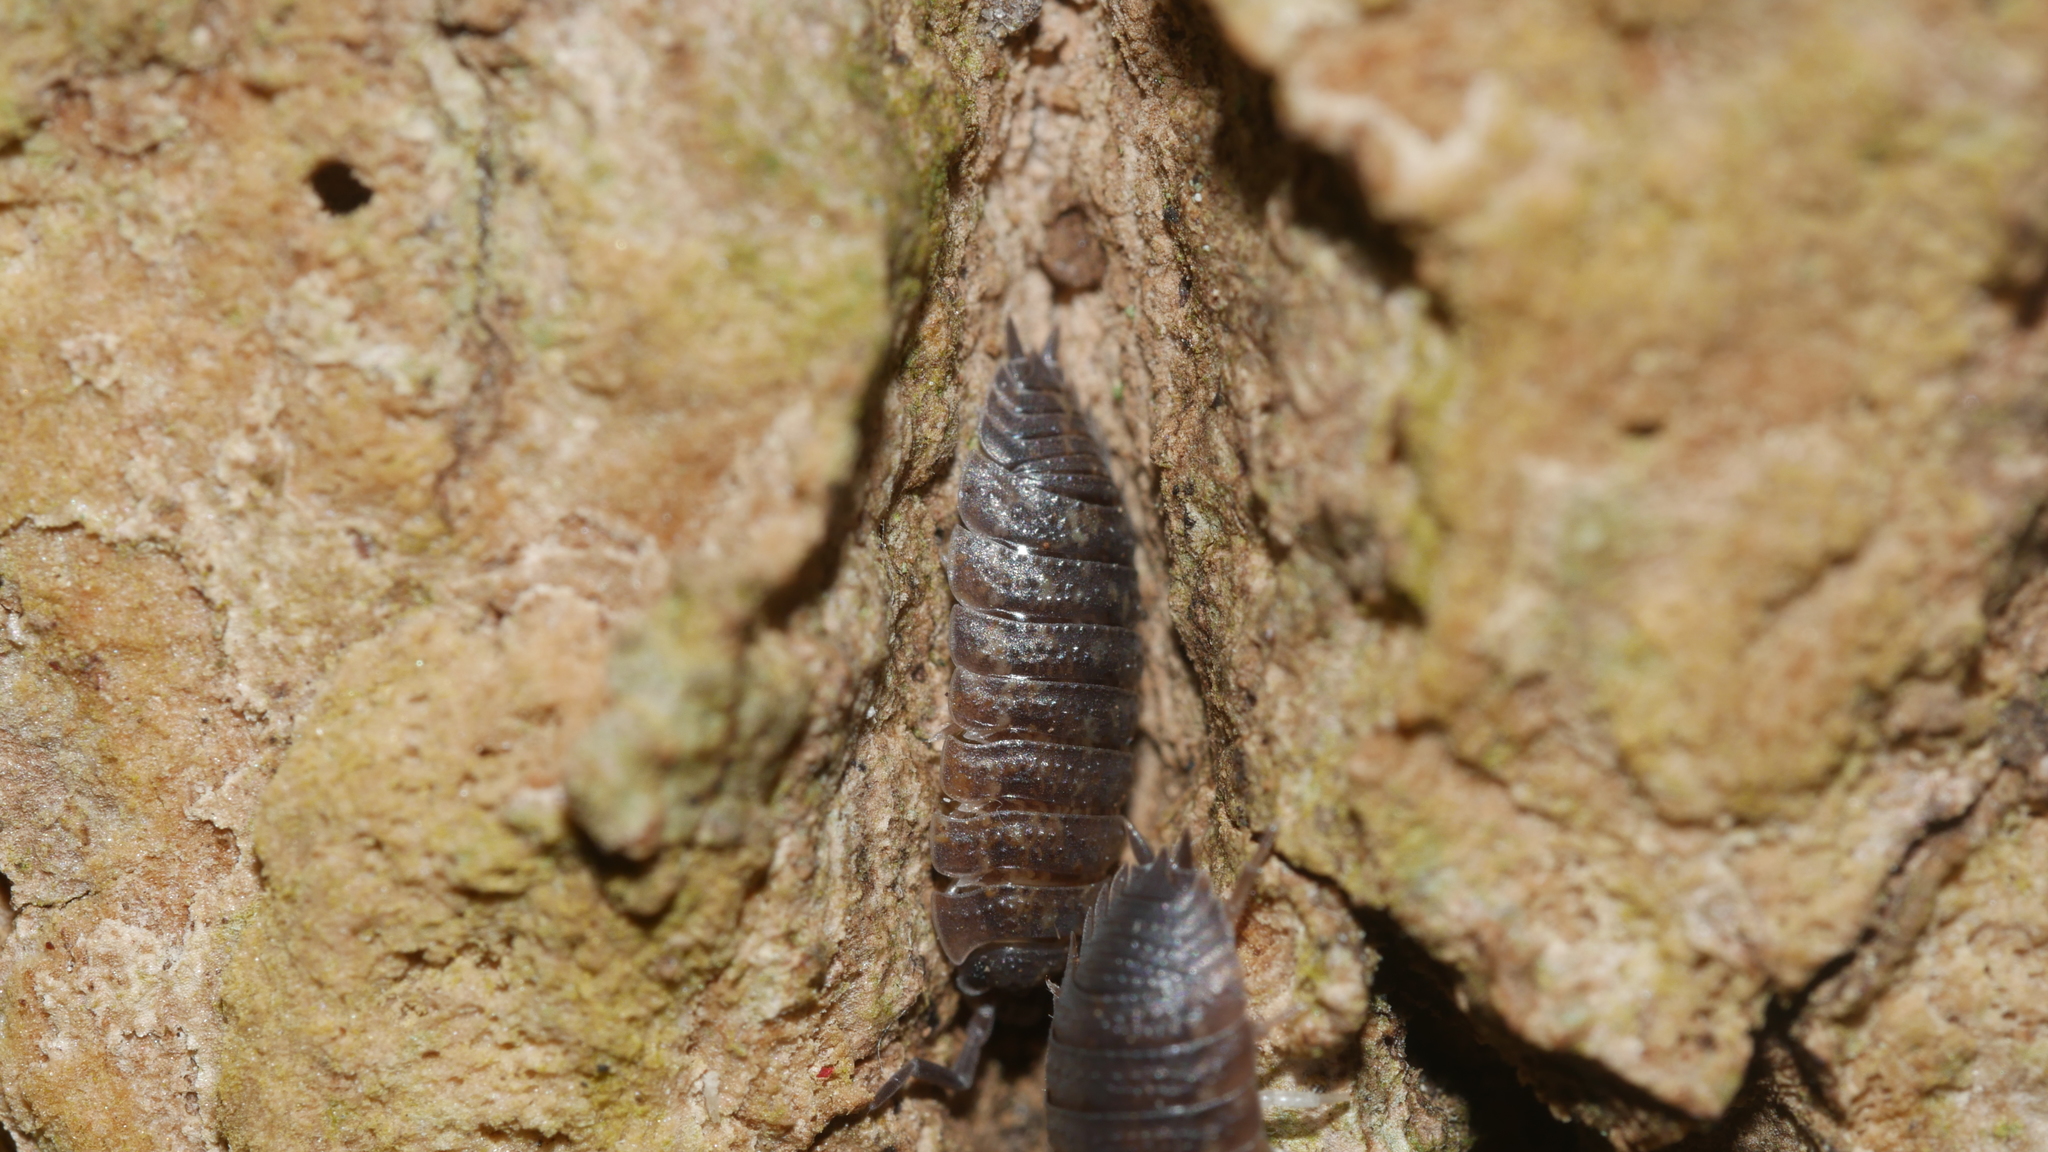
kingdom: Animalia
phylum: Arthropoda
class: Malacostraca
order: Isopoda
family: Porcellionidae
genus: Porcellio
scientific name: Porcellio scaber
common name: Common rough woodlouse
